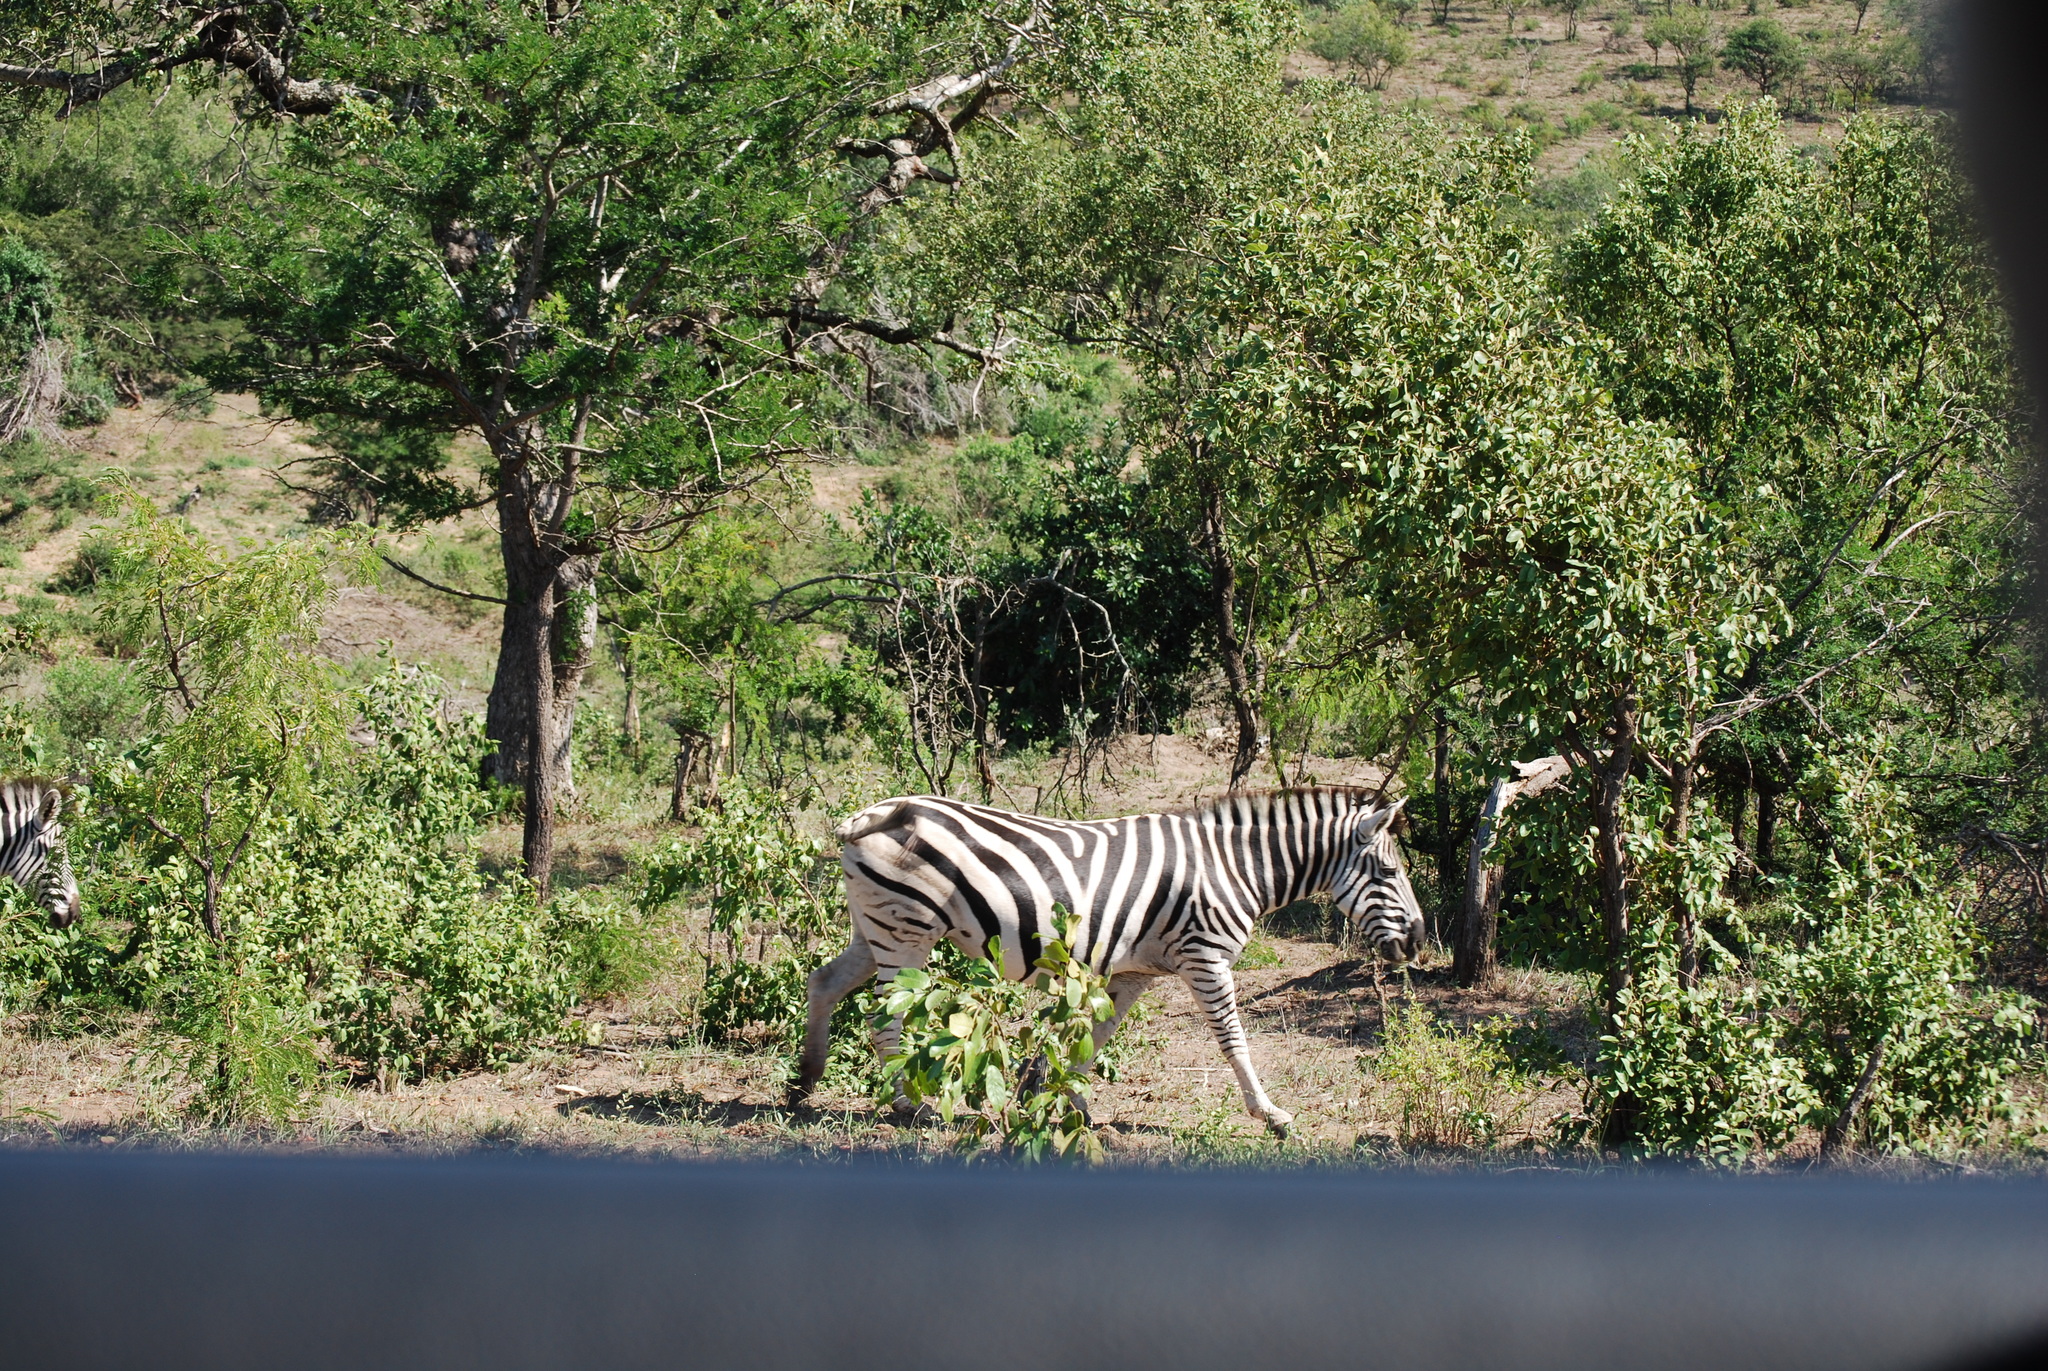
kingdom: Animalia
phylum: Chordata
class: Mammalia
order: Perissodactyla
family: Equidae
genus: Equus
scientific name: Equus quagga
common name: Plains zebra
